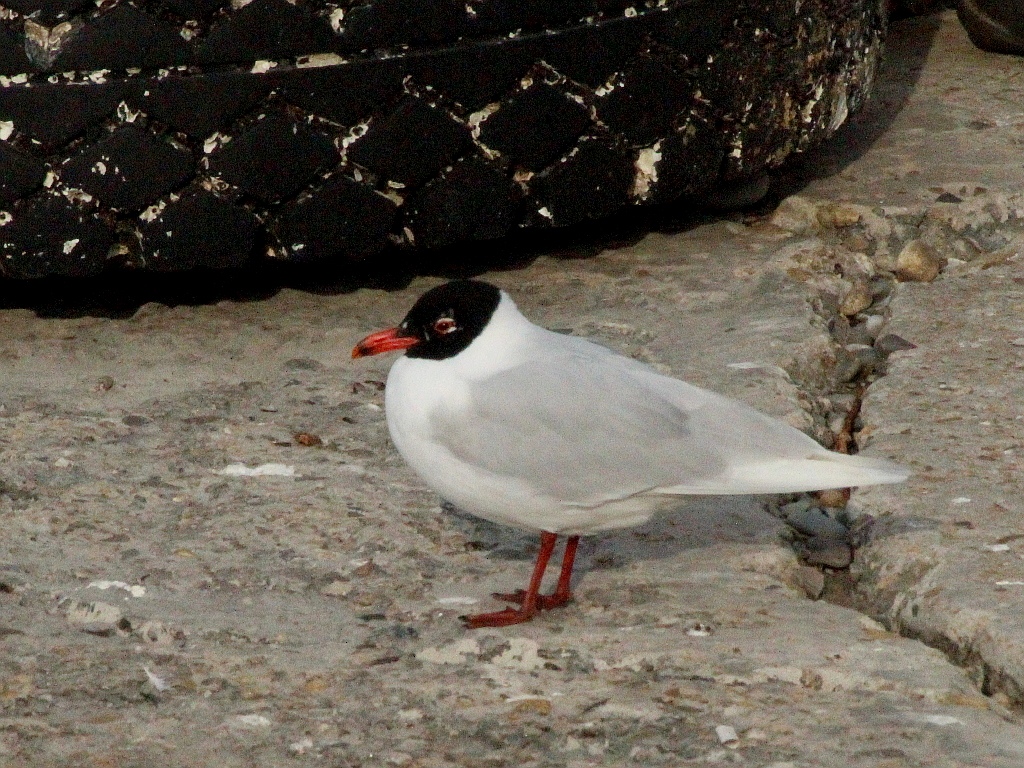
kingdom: Animalia
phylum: Chordata
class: Aves
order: Charadriiformes
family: Laridae
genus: Ichthyaetus
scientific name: Ichthyaetus melanocephalus
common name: Mediterranean gull
